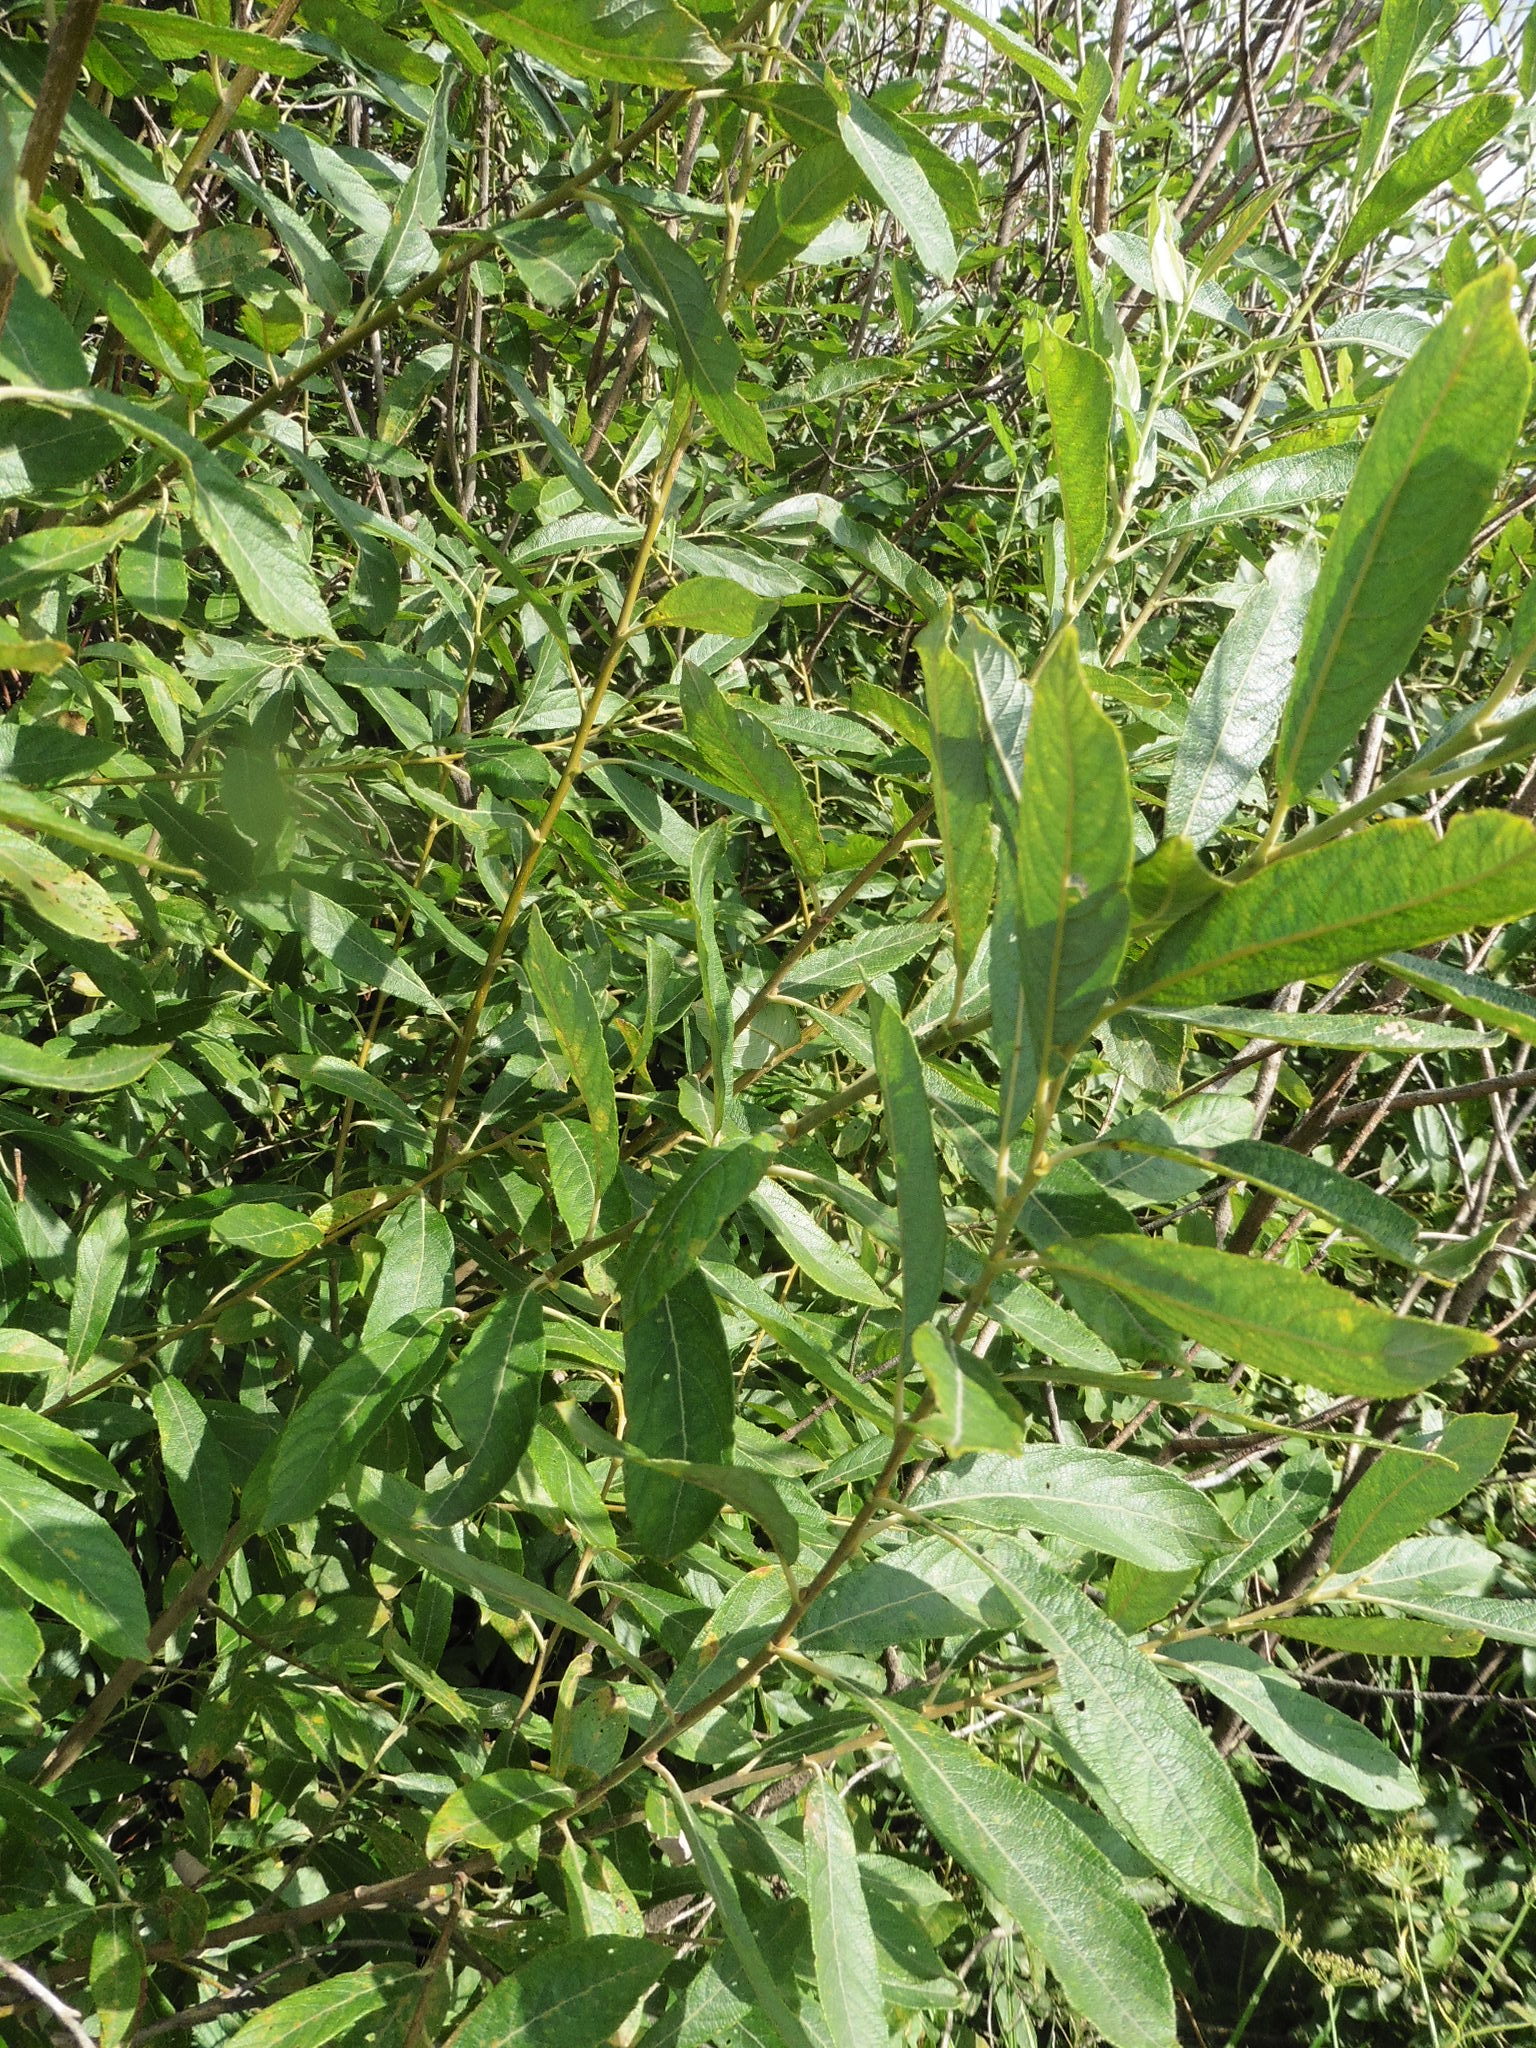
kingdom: Plantae
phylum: Tracheophyta
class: Magnoliopsida
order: Malpighiales
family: Salicaceae
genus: Salix
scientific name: Salix cinerea
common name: Common sallow
